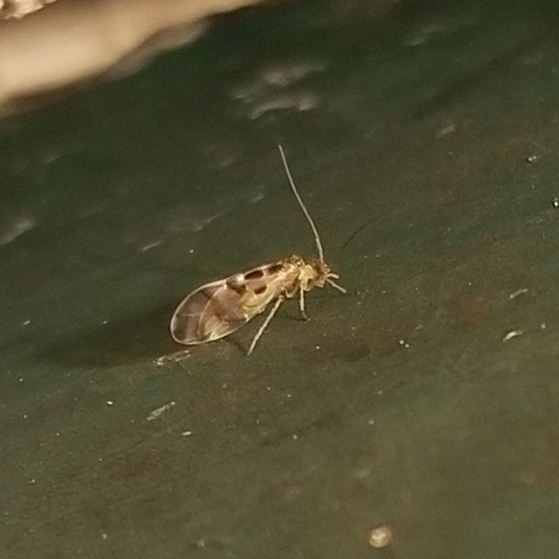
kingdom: Animalia
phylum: Arthropoda
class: Insecta
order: Psocodea
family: Stenopsocidae
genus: Graphopsocus
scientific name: Graphopsocus cruciatus
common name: Lizard bark louse
